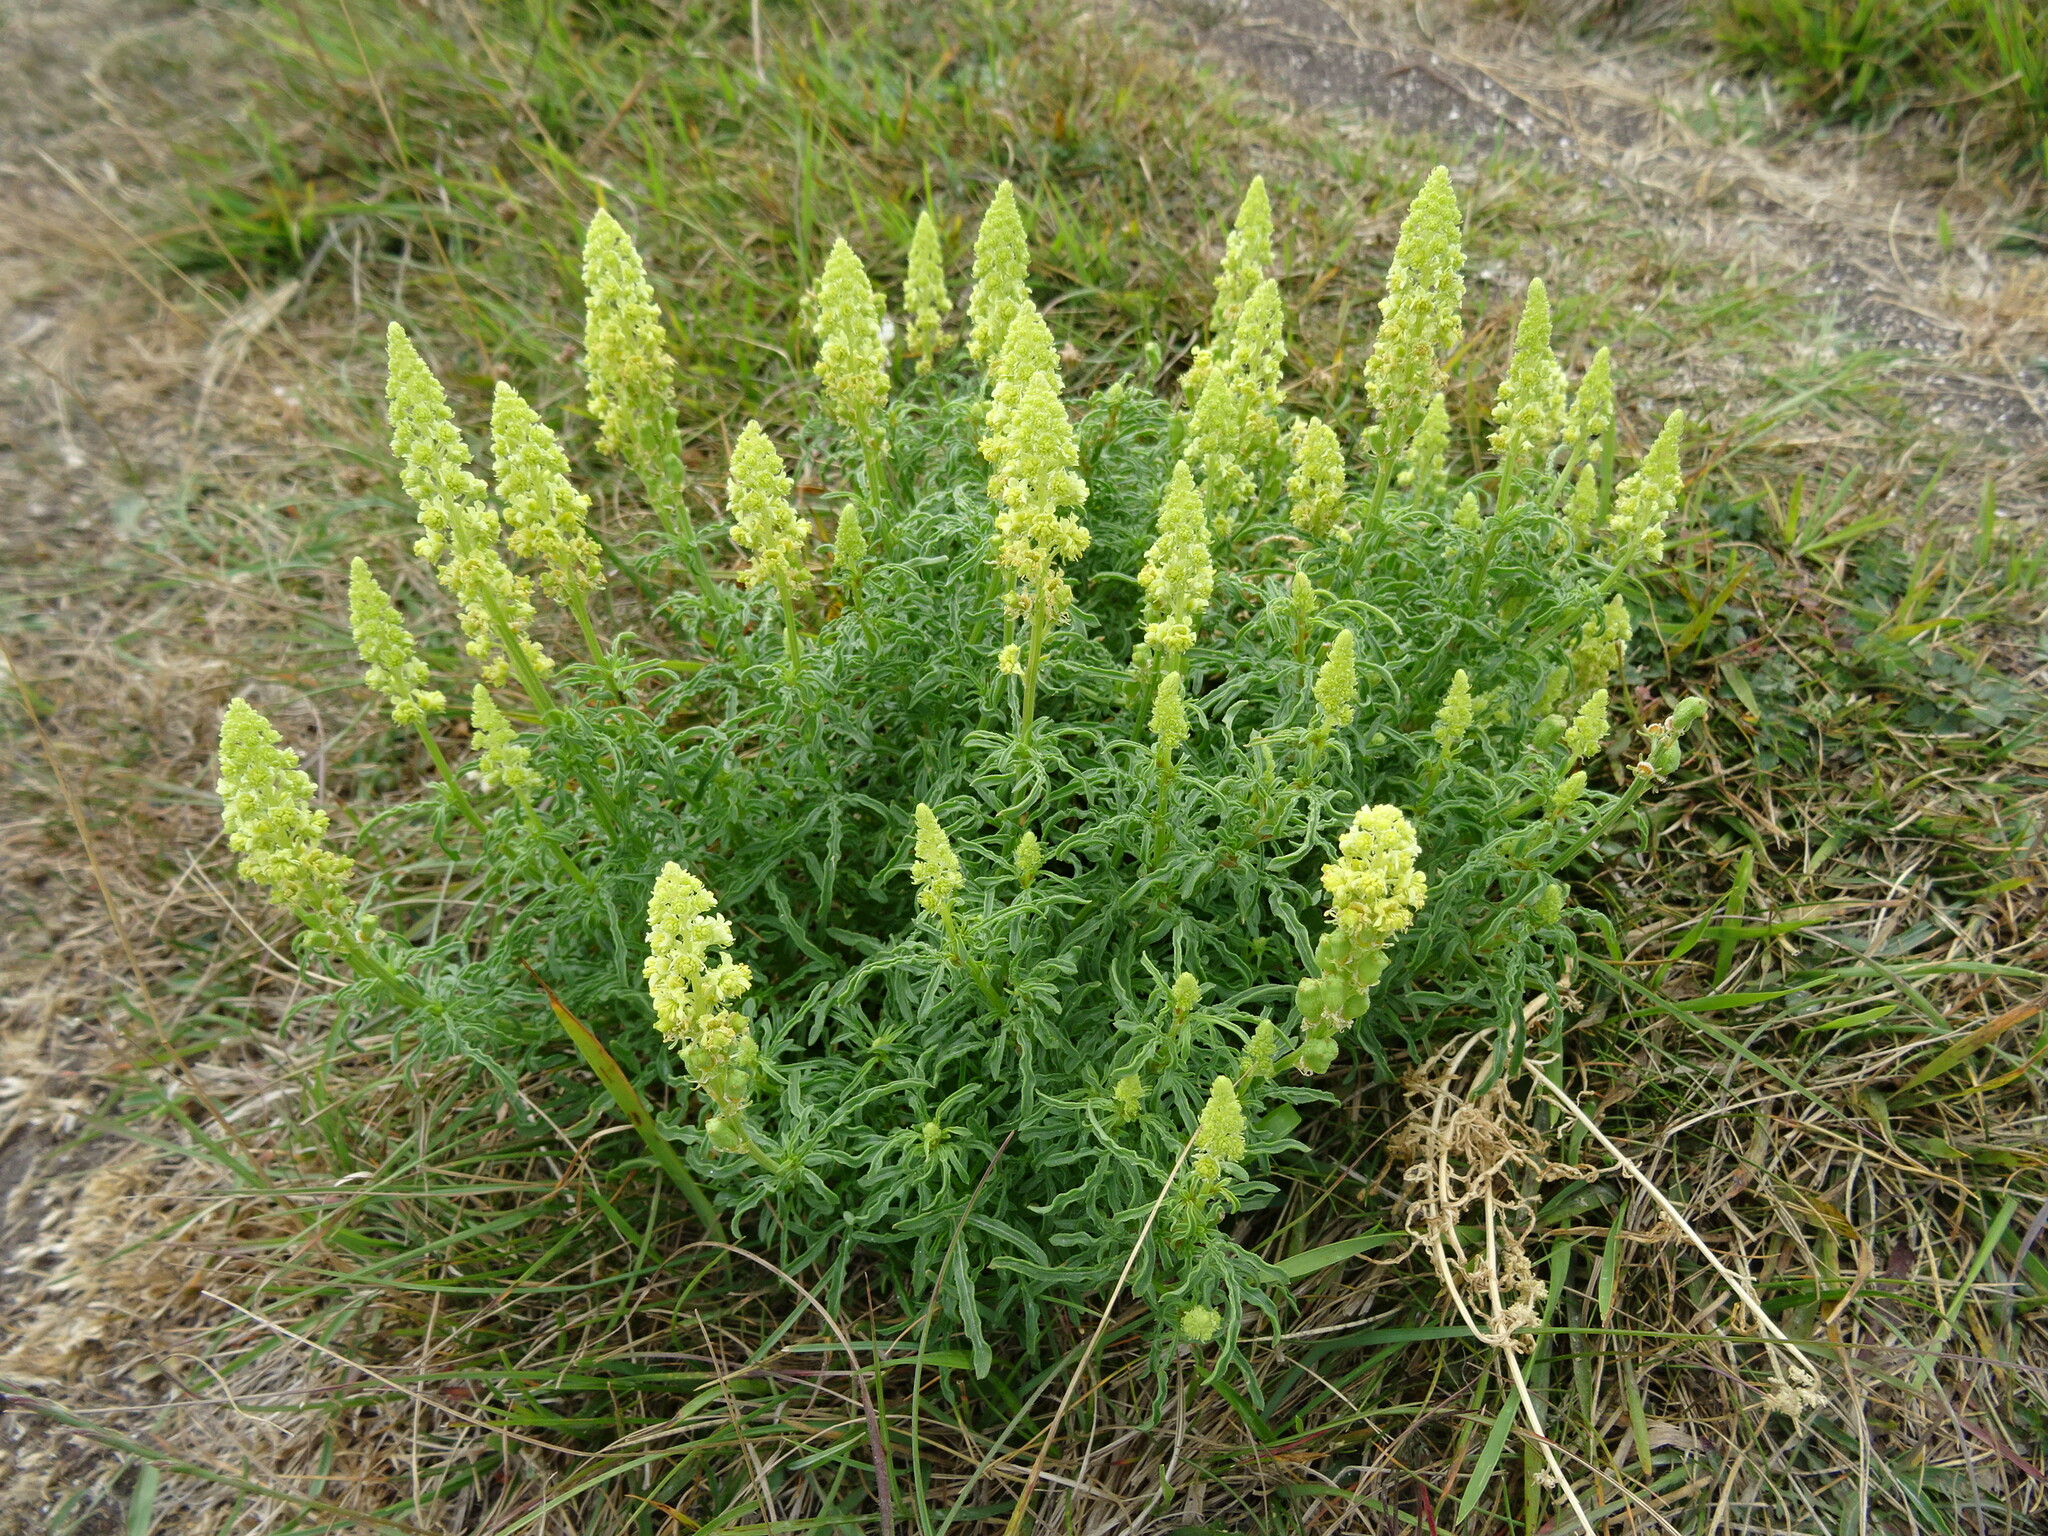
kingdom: Plantae
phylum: Tracheophyta
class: Magnoliopsida
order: Brassicales
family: Resedaceae
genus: Reseda
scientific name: Reseda lutea
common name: Wild mignonette
